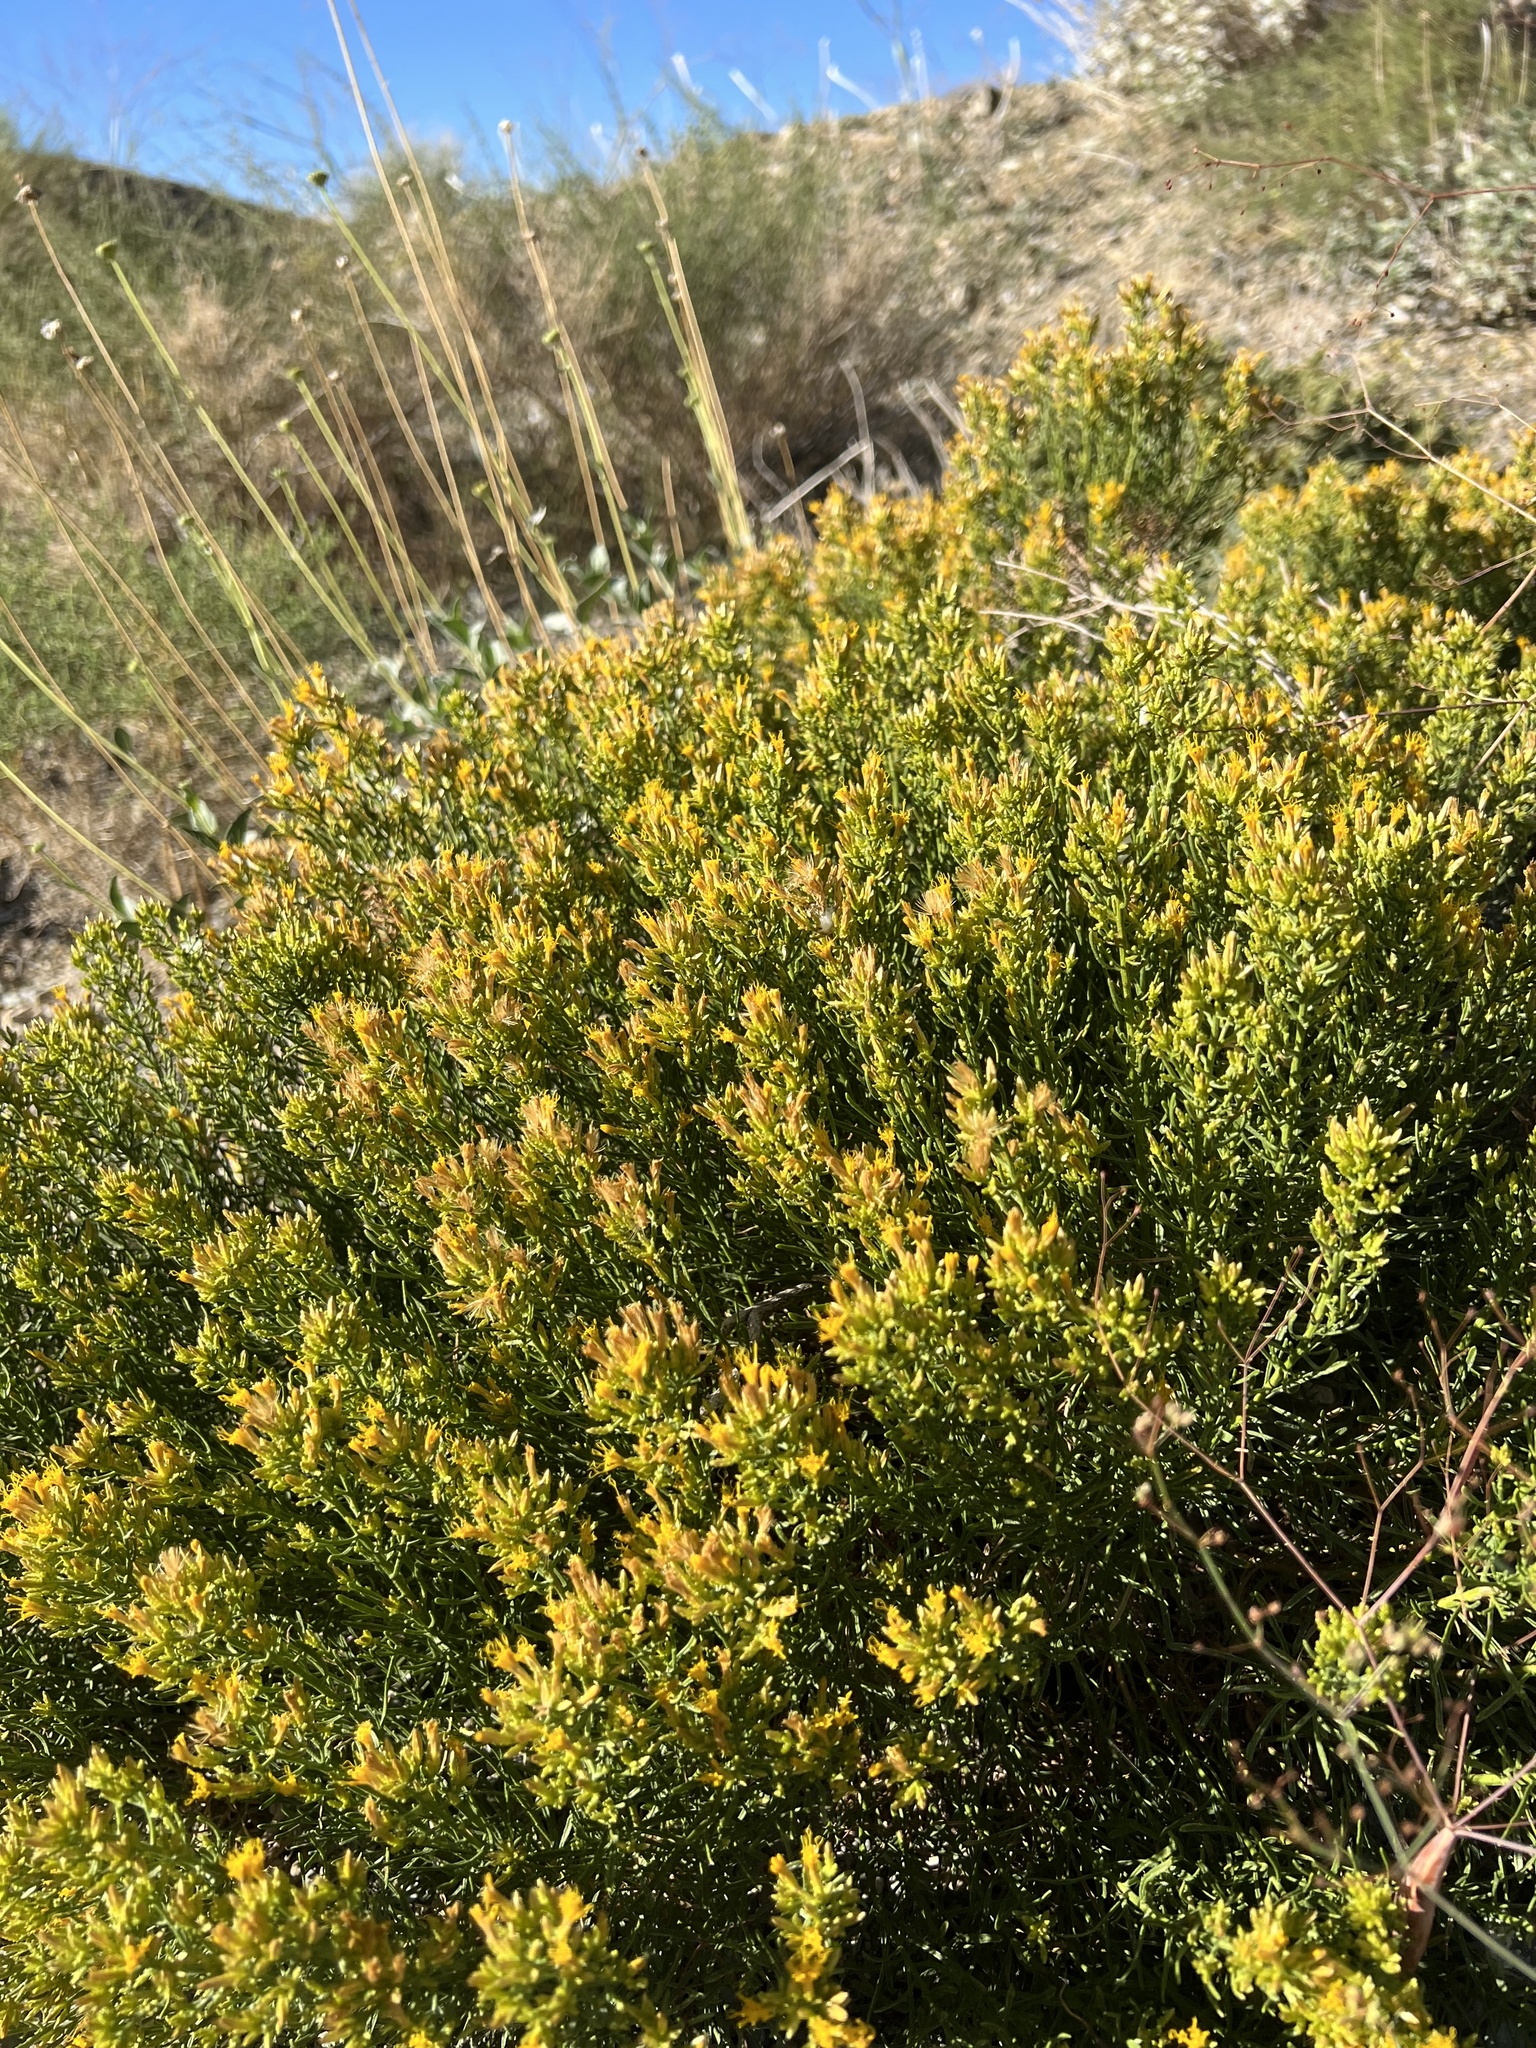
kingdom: Plantae
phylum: Tracheophyta
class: Magnoliopsida
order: Asterales
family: Asteraceae
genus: Ericameria
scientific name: Ericameria teretifolia
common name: Round-leaf rabbitbrush
